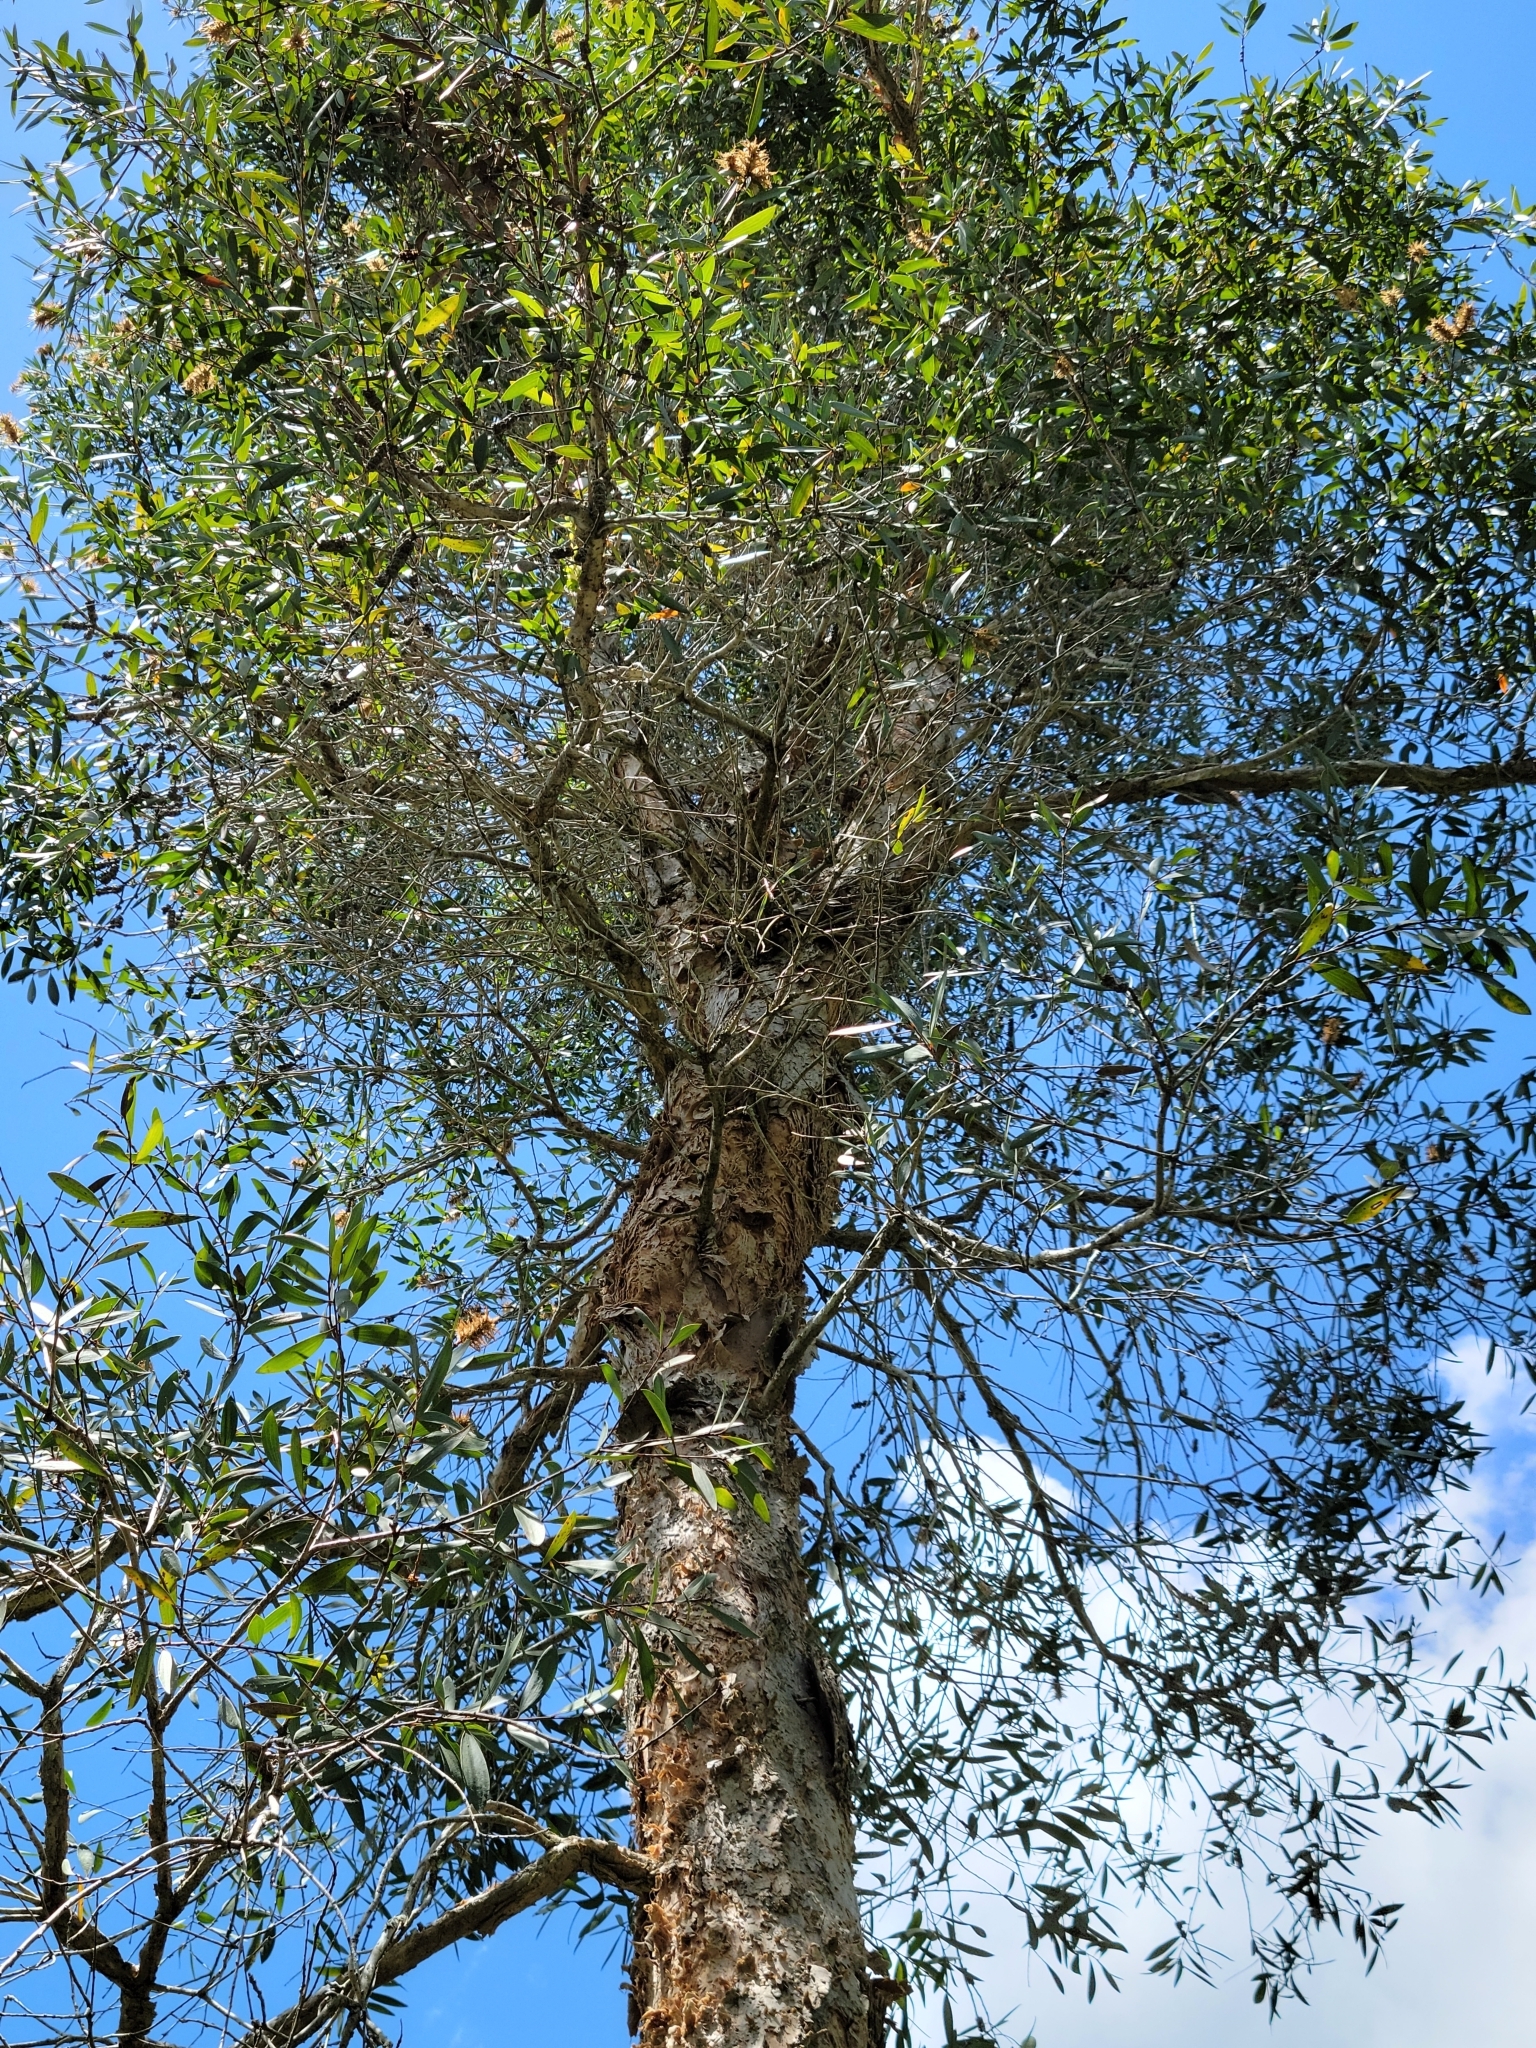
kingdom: Plantae
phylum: Tracheophyta
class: Magnoliopsida
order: Myrtales
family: Myrtaceae
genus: Melaleuca
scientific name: Melaleuca quinquenervia
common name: Punktree
